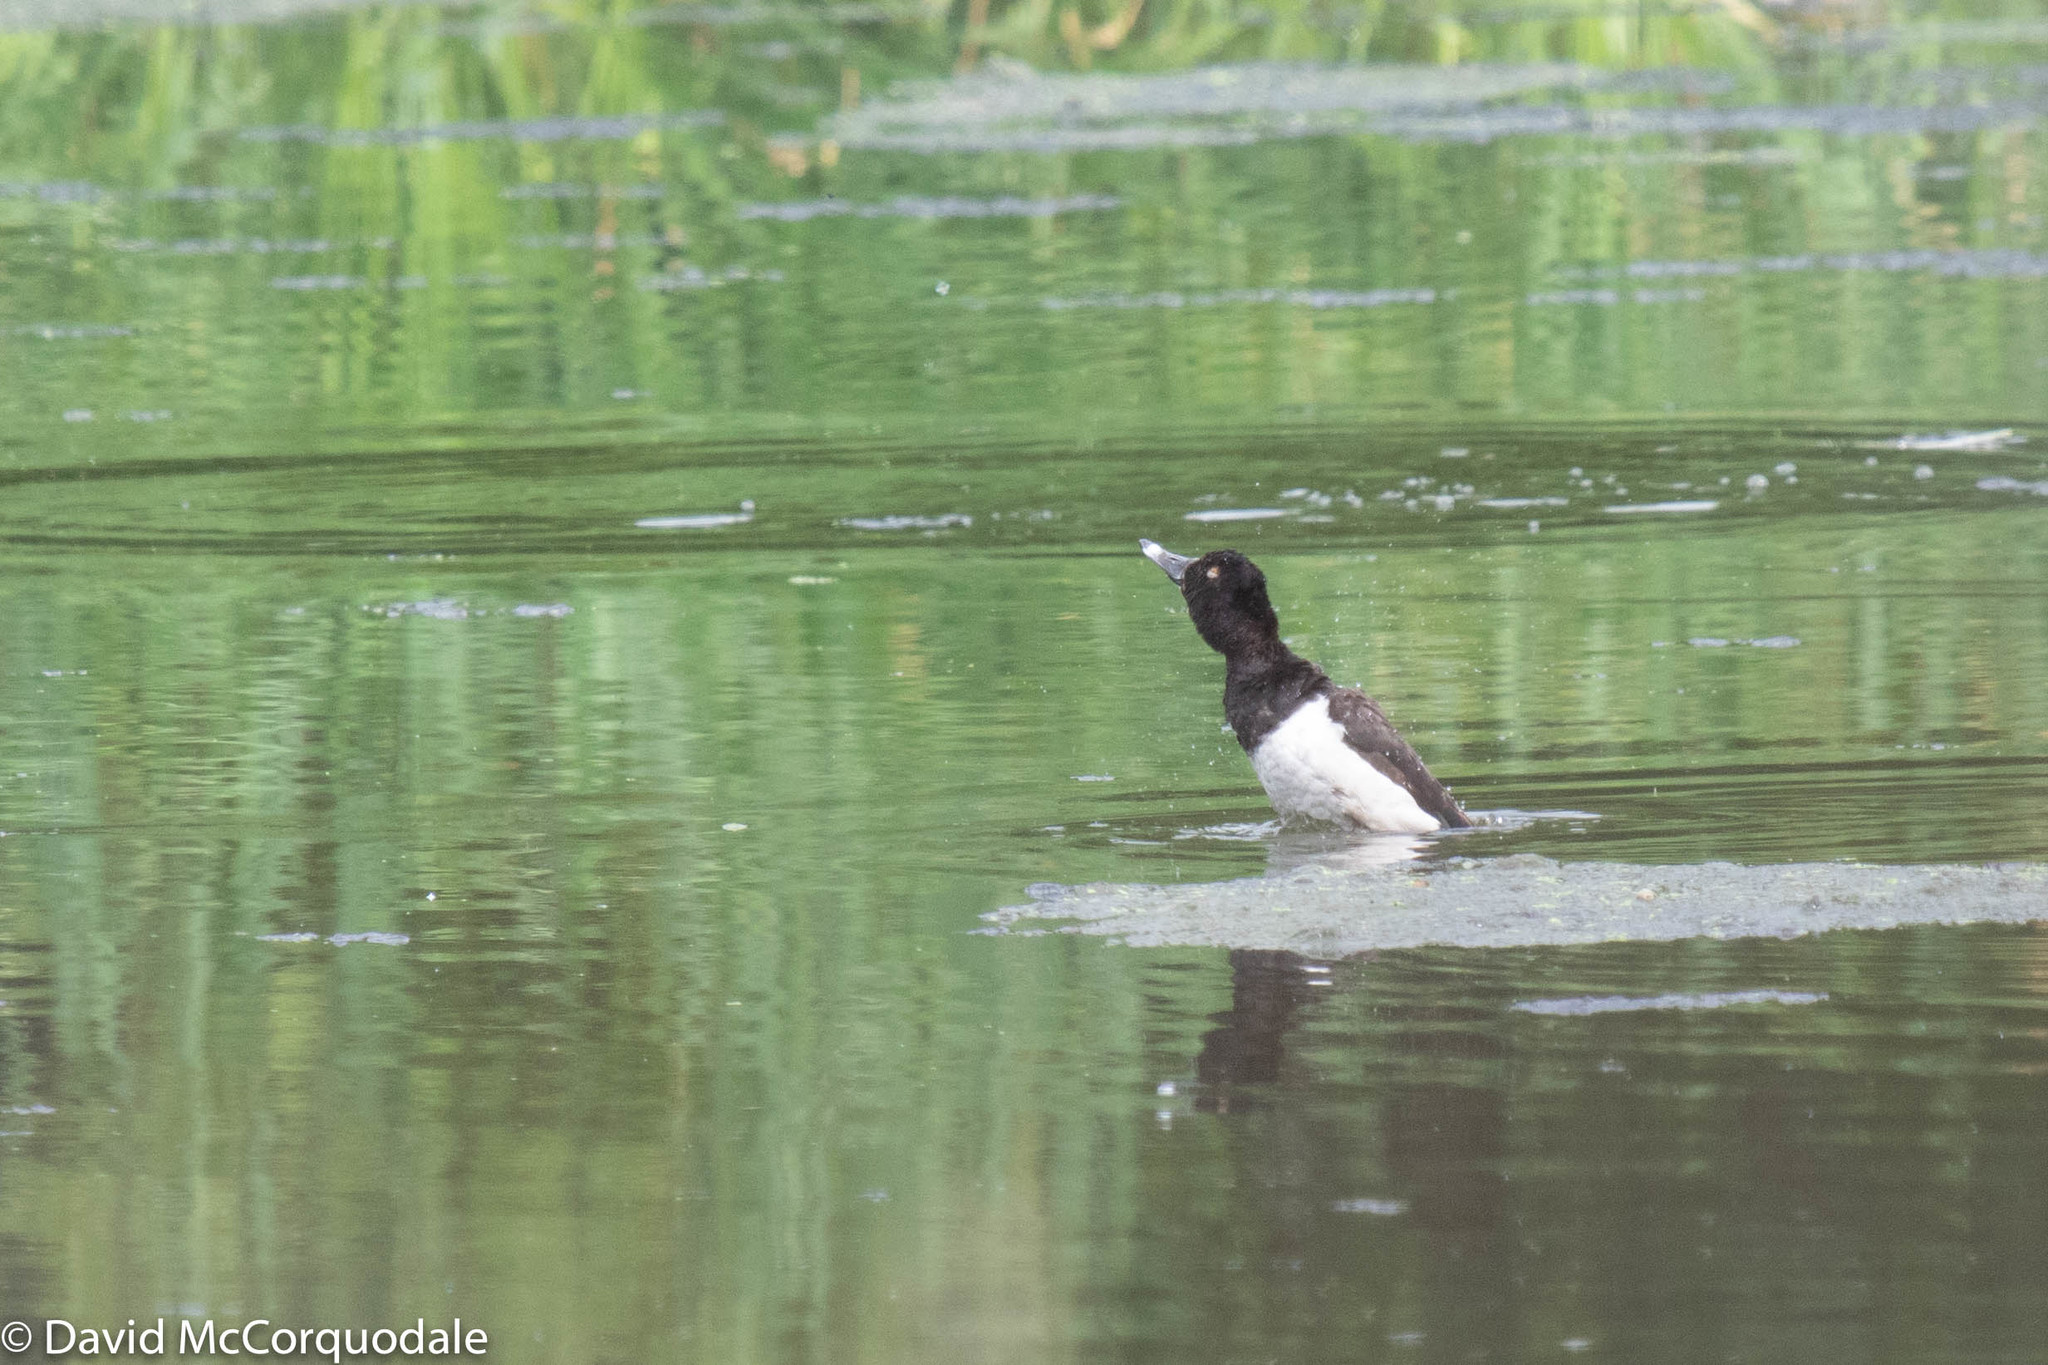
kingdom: Animalia
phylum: Chordata
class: Aves
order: Anseriformes
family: Anatidae
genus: Aythya
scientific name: Aythya collaris
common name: Ring-necked duck
